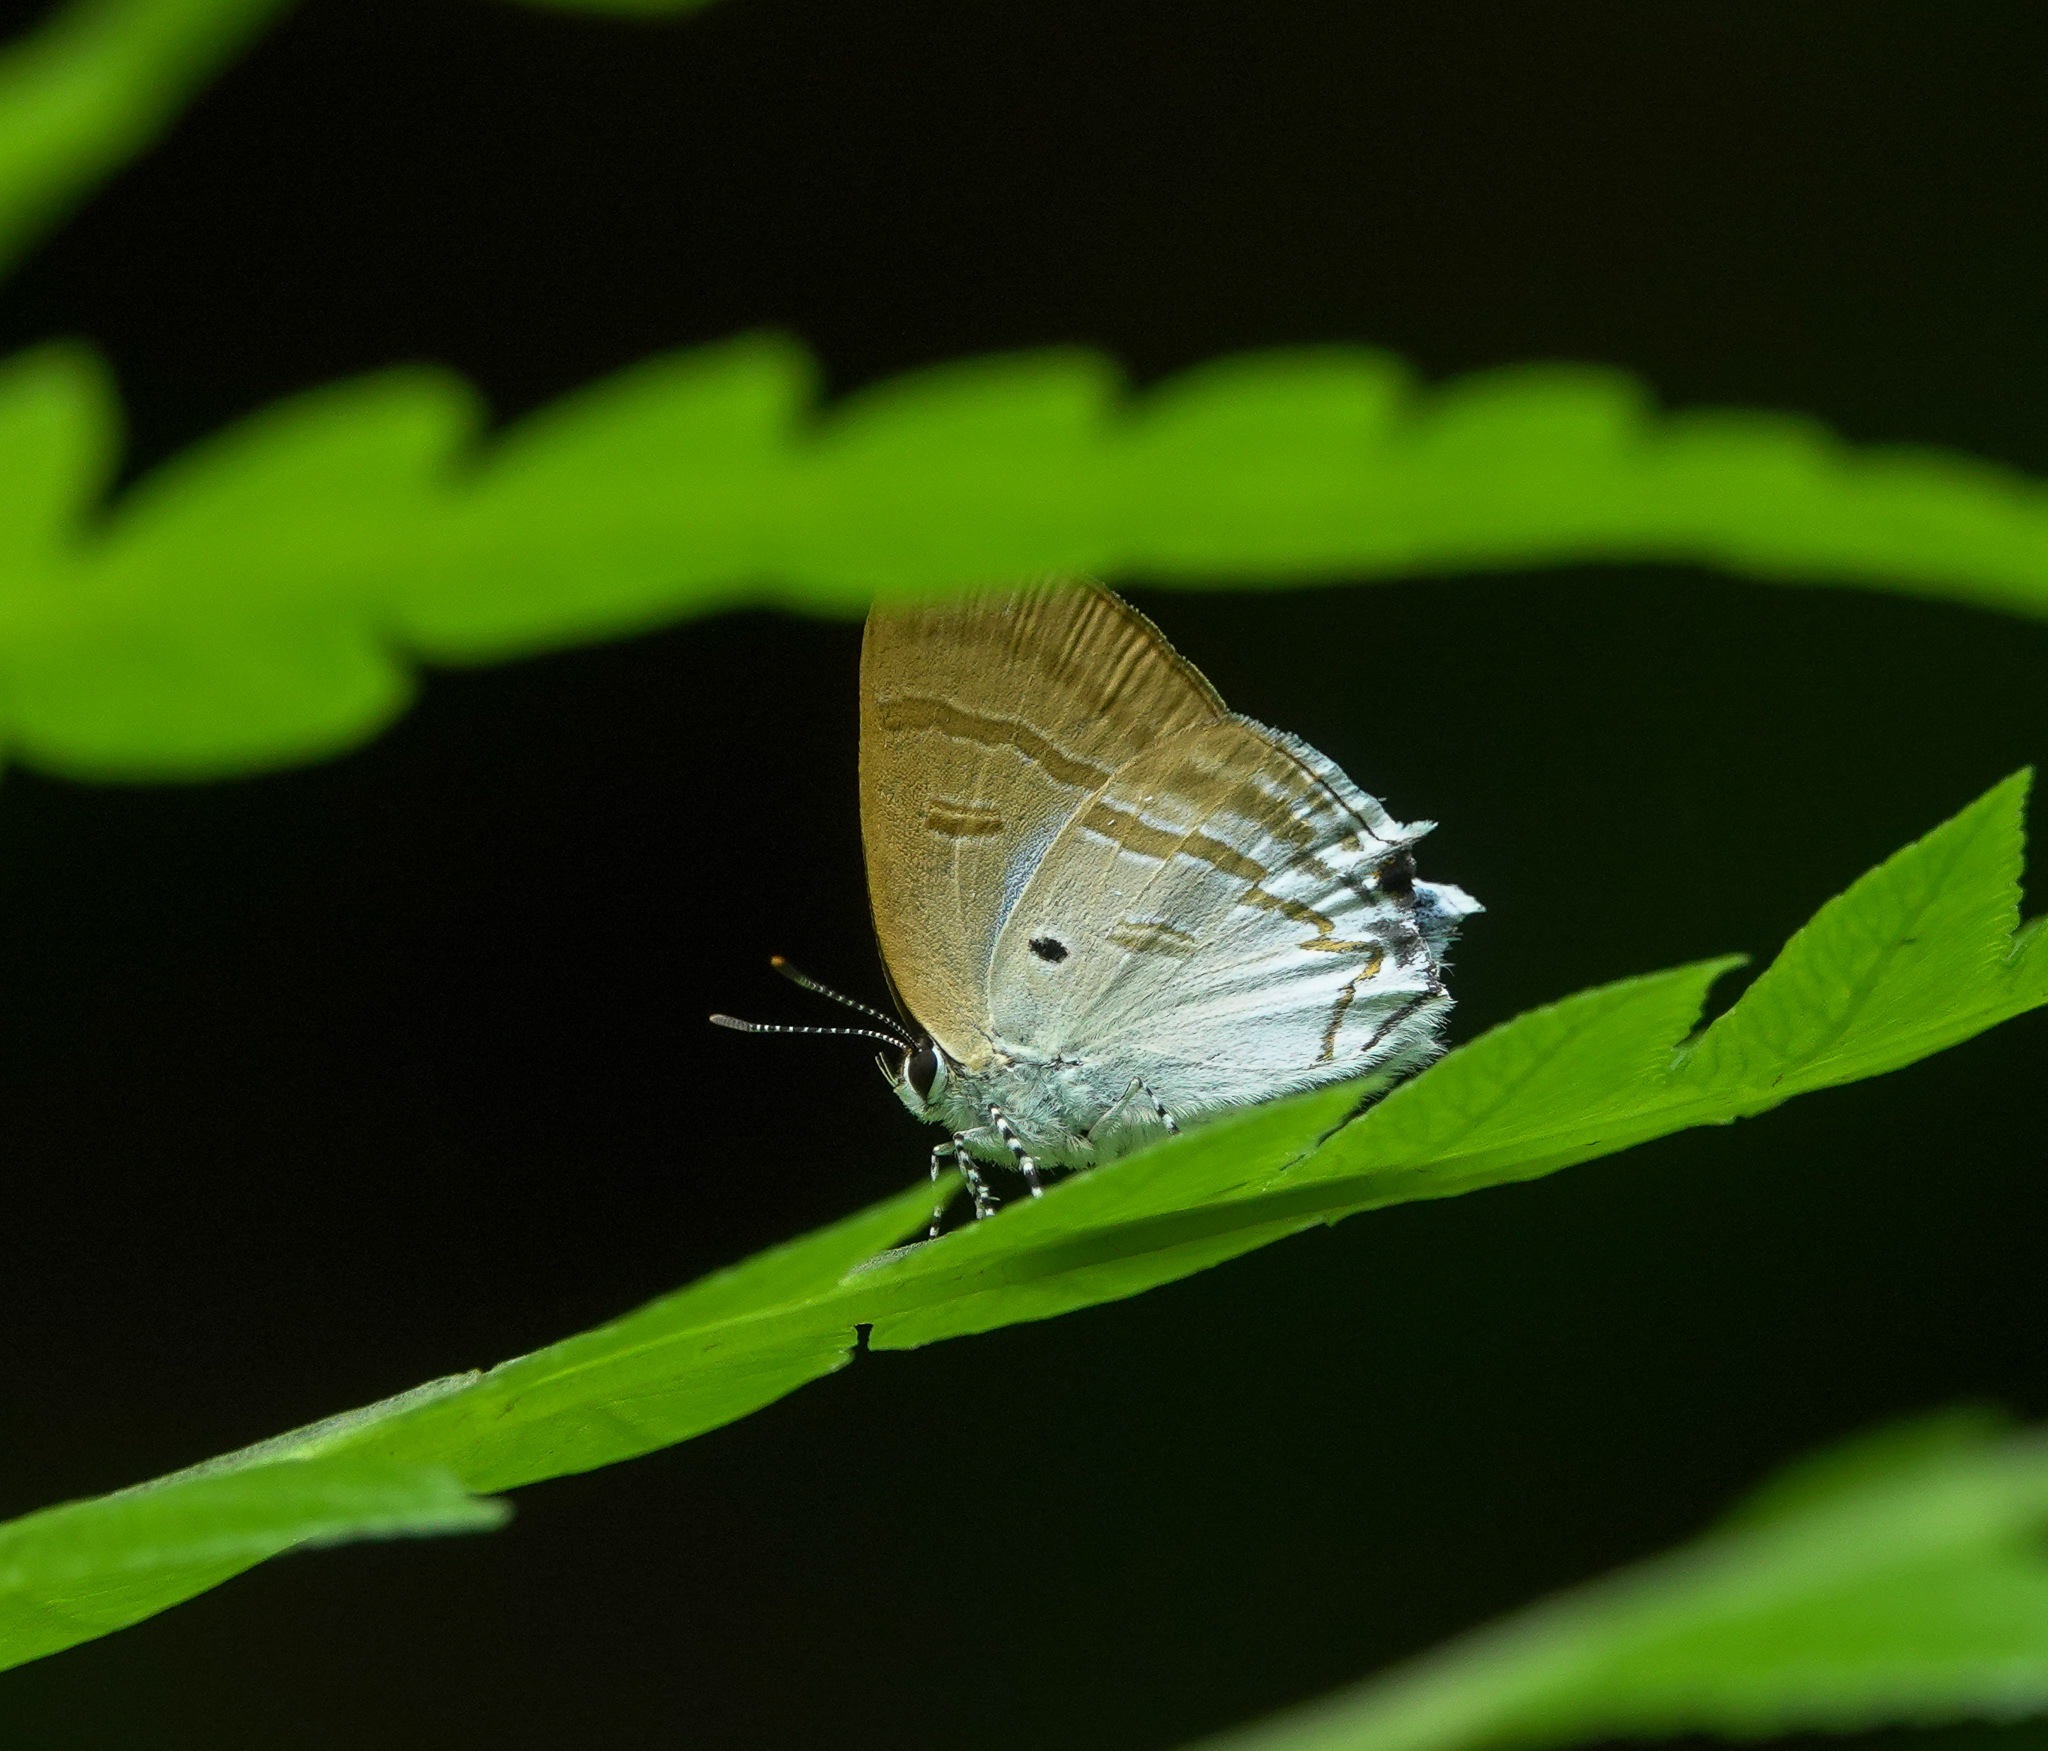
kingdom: Animalia
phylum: Arthropoda
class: Insecta
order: Lepidoptera
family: Lycaenidae
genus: Zeltus
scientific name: Zeltus amasa
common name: Fluffy tit
